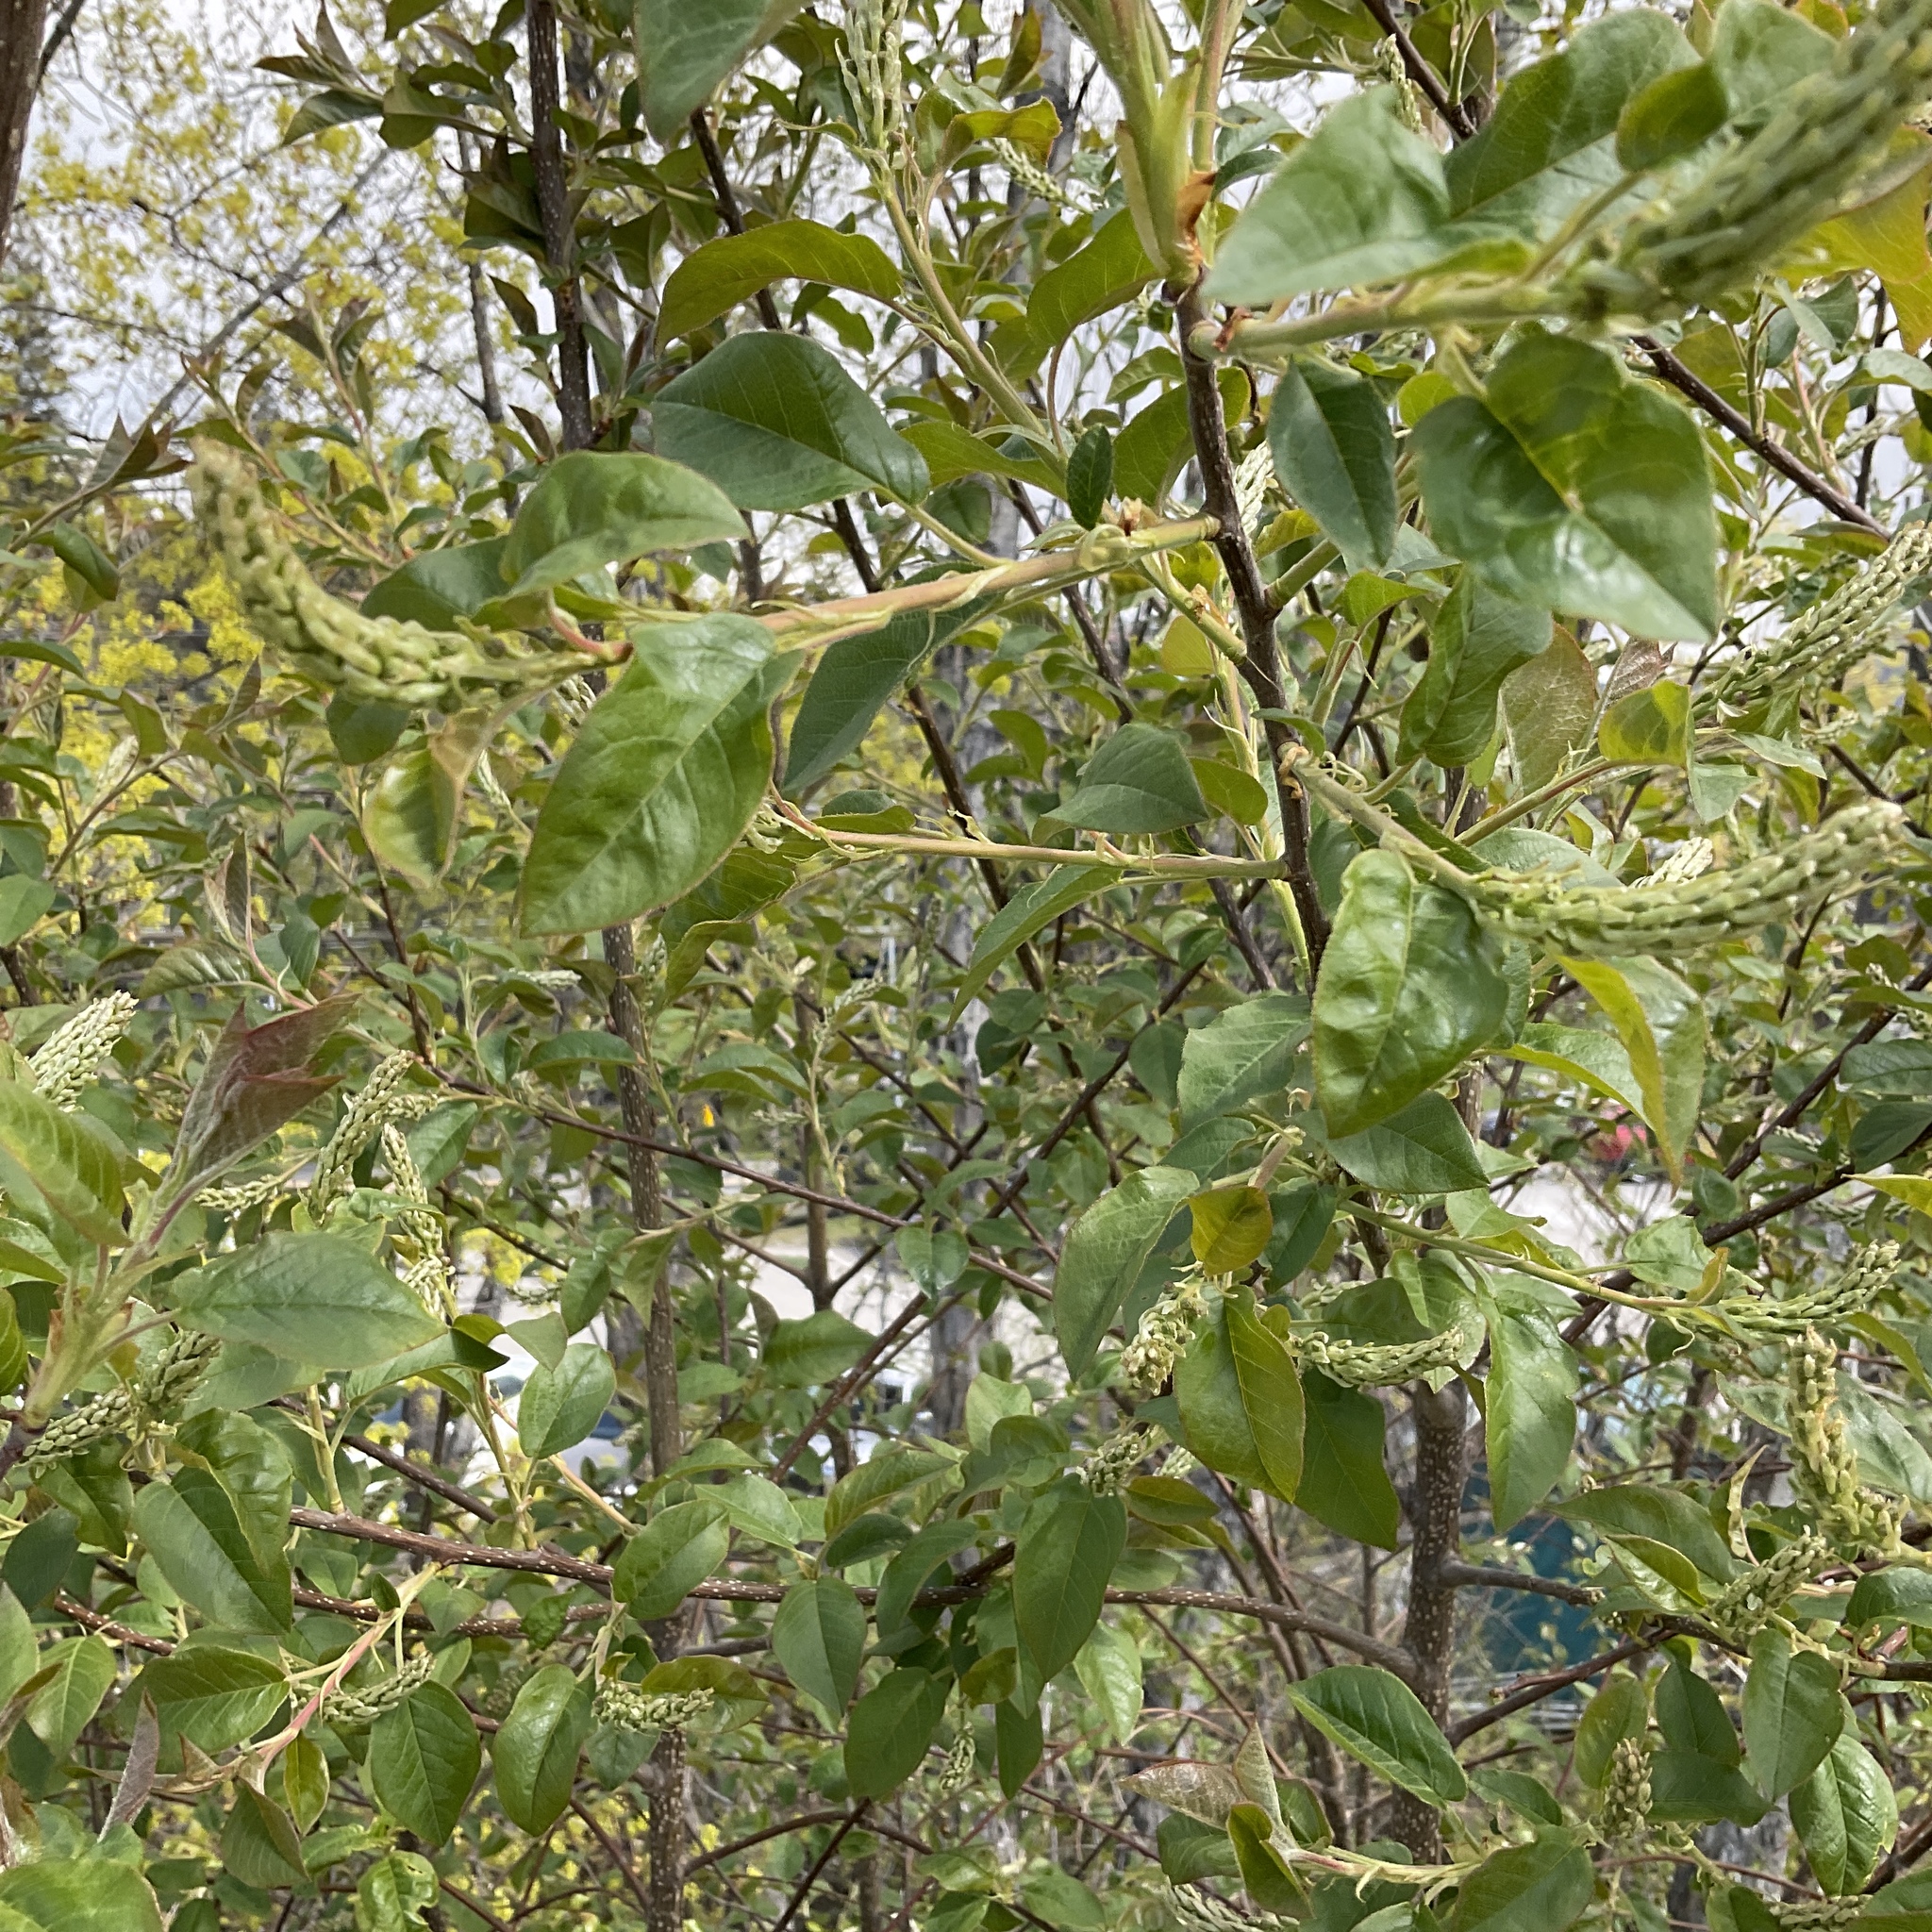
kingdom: Plantae
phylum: Tracheophyta
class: Magnoliopsida
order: Rosales
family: Rosaceae
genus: Prunus
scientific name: Prunus virginiana
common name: Chokecherry
